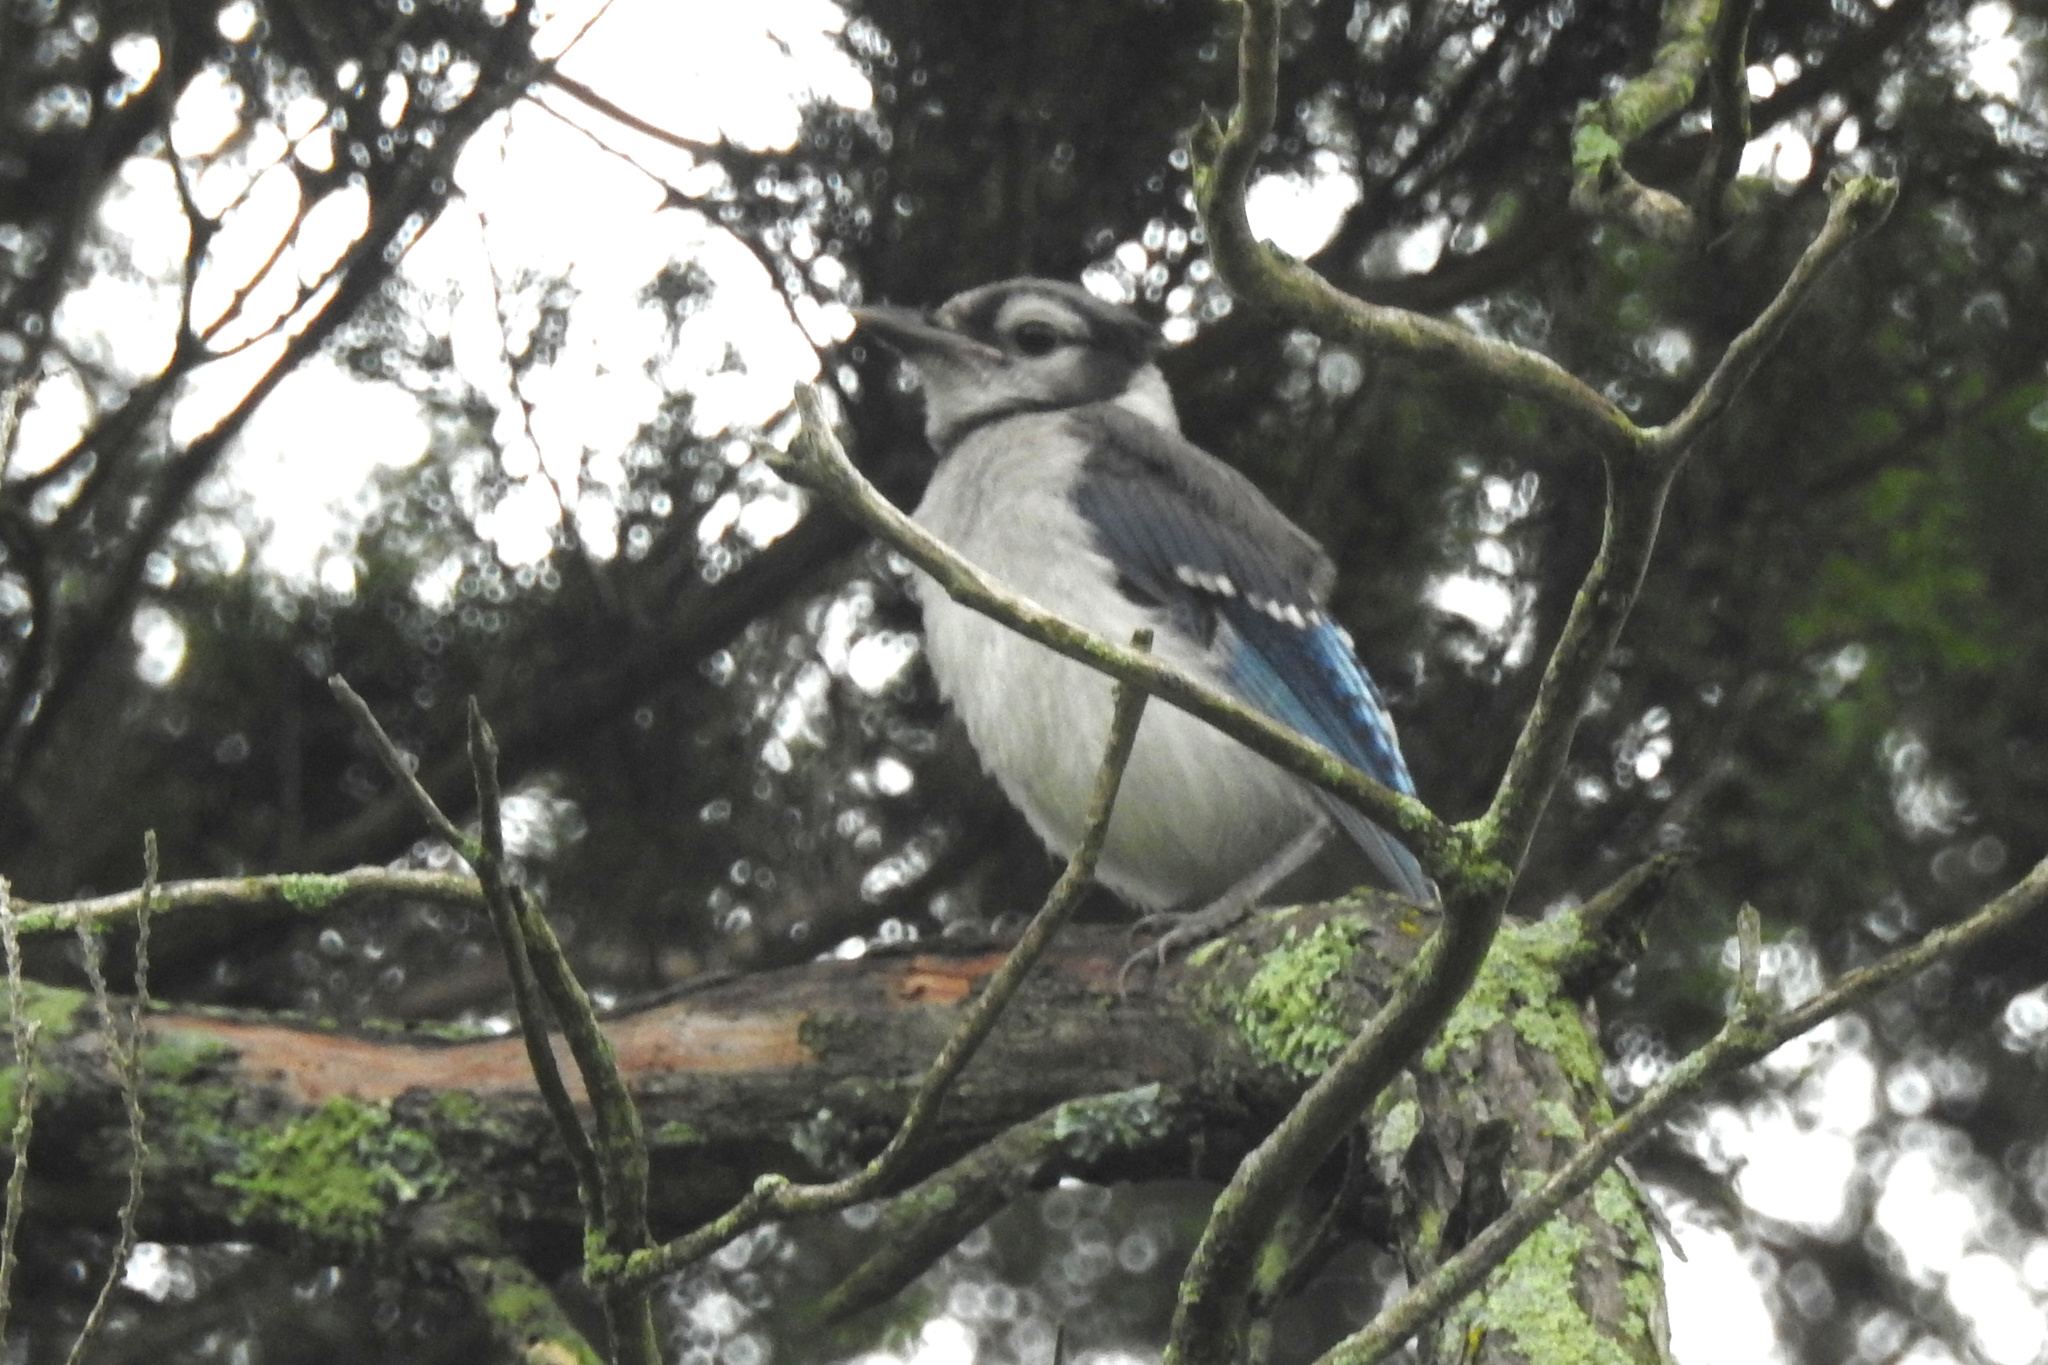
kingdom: Animalia
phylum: Chordata
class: Aves
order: Passeriformes
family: Corvidae
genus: Cyanocitta
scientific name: Cyanocitta cristata
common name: Blue jay
